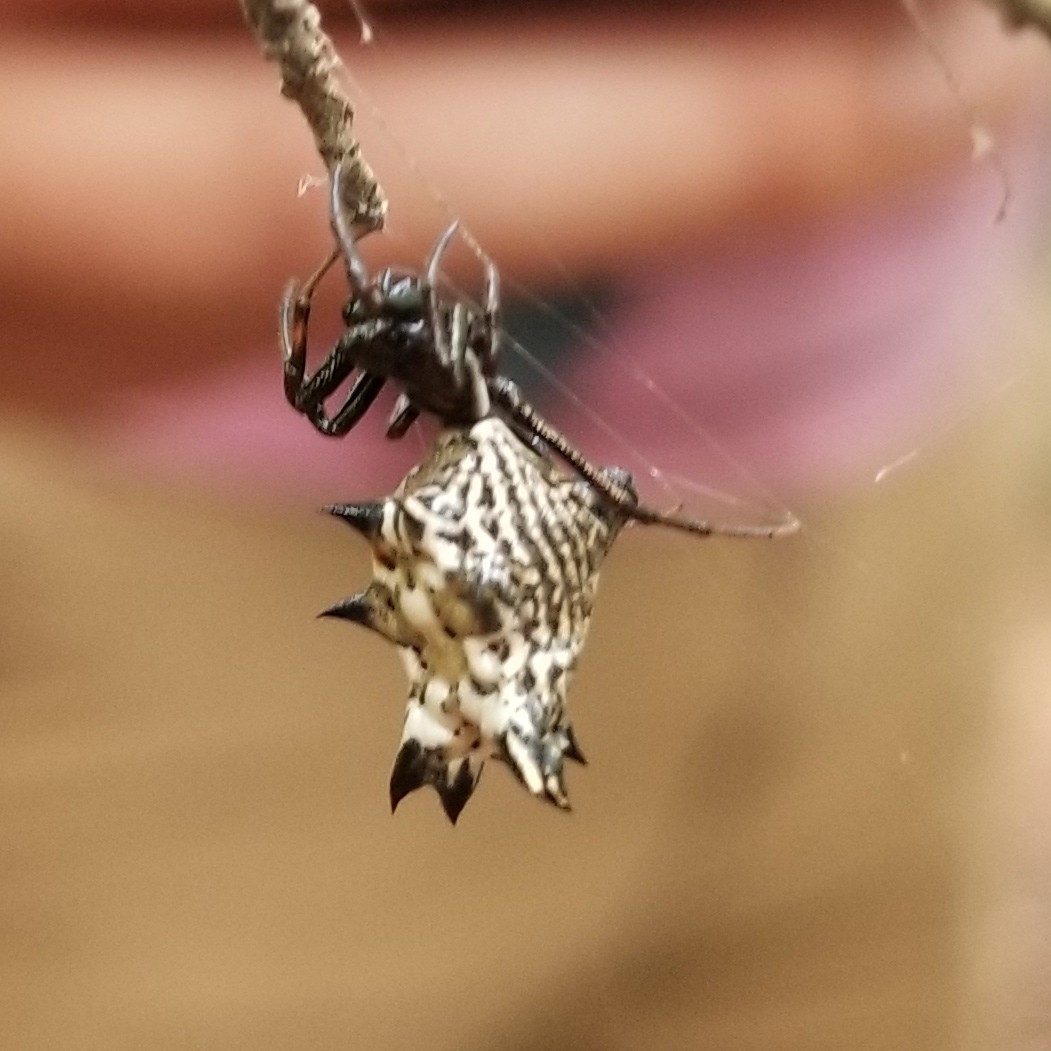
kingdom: Animalia
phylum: Arthropoda
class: Arachnida
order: Araneae
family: Araneidae
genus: Micrathena
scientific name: Micrathena gracilis
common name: Orb weavers
